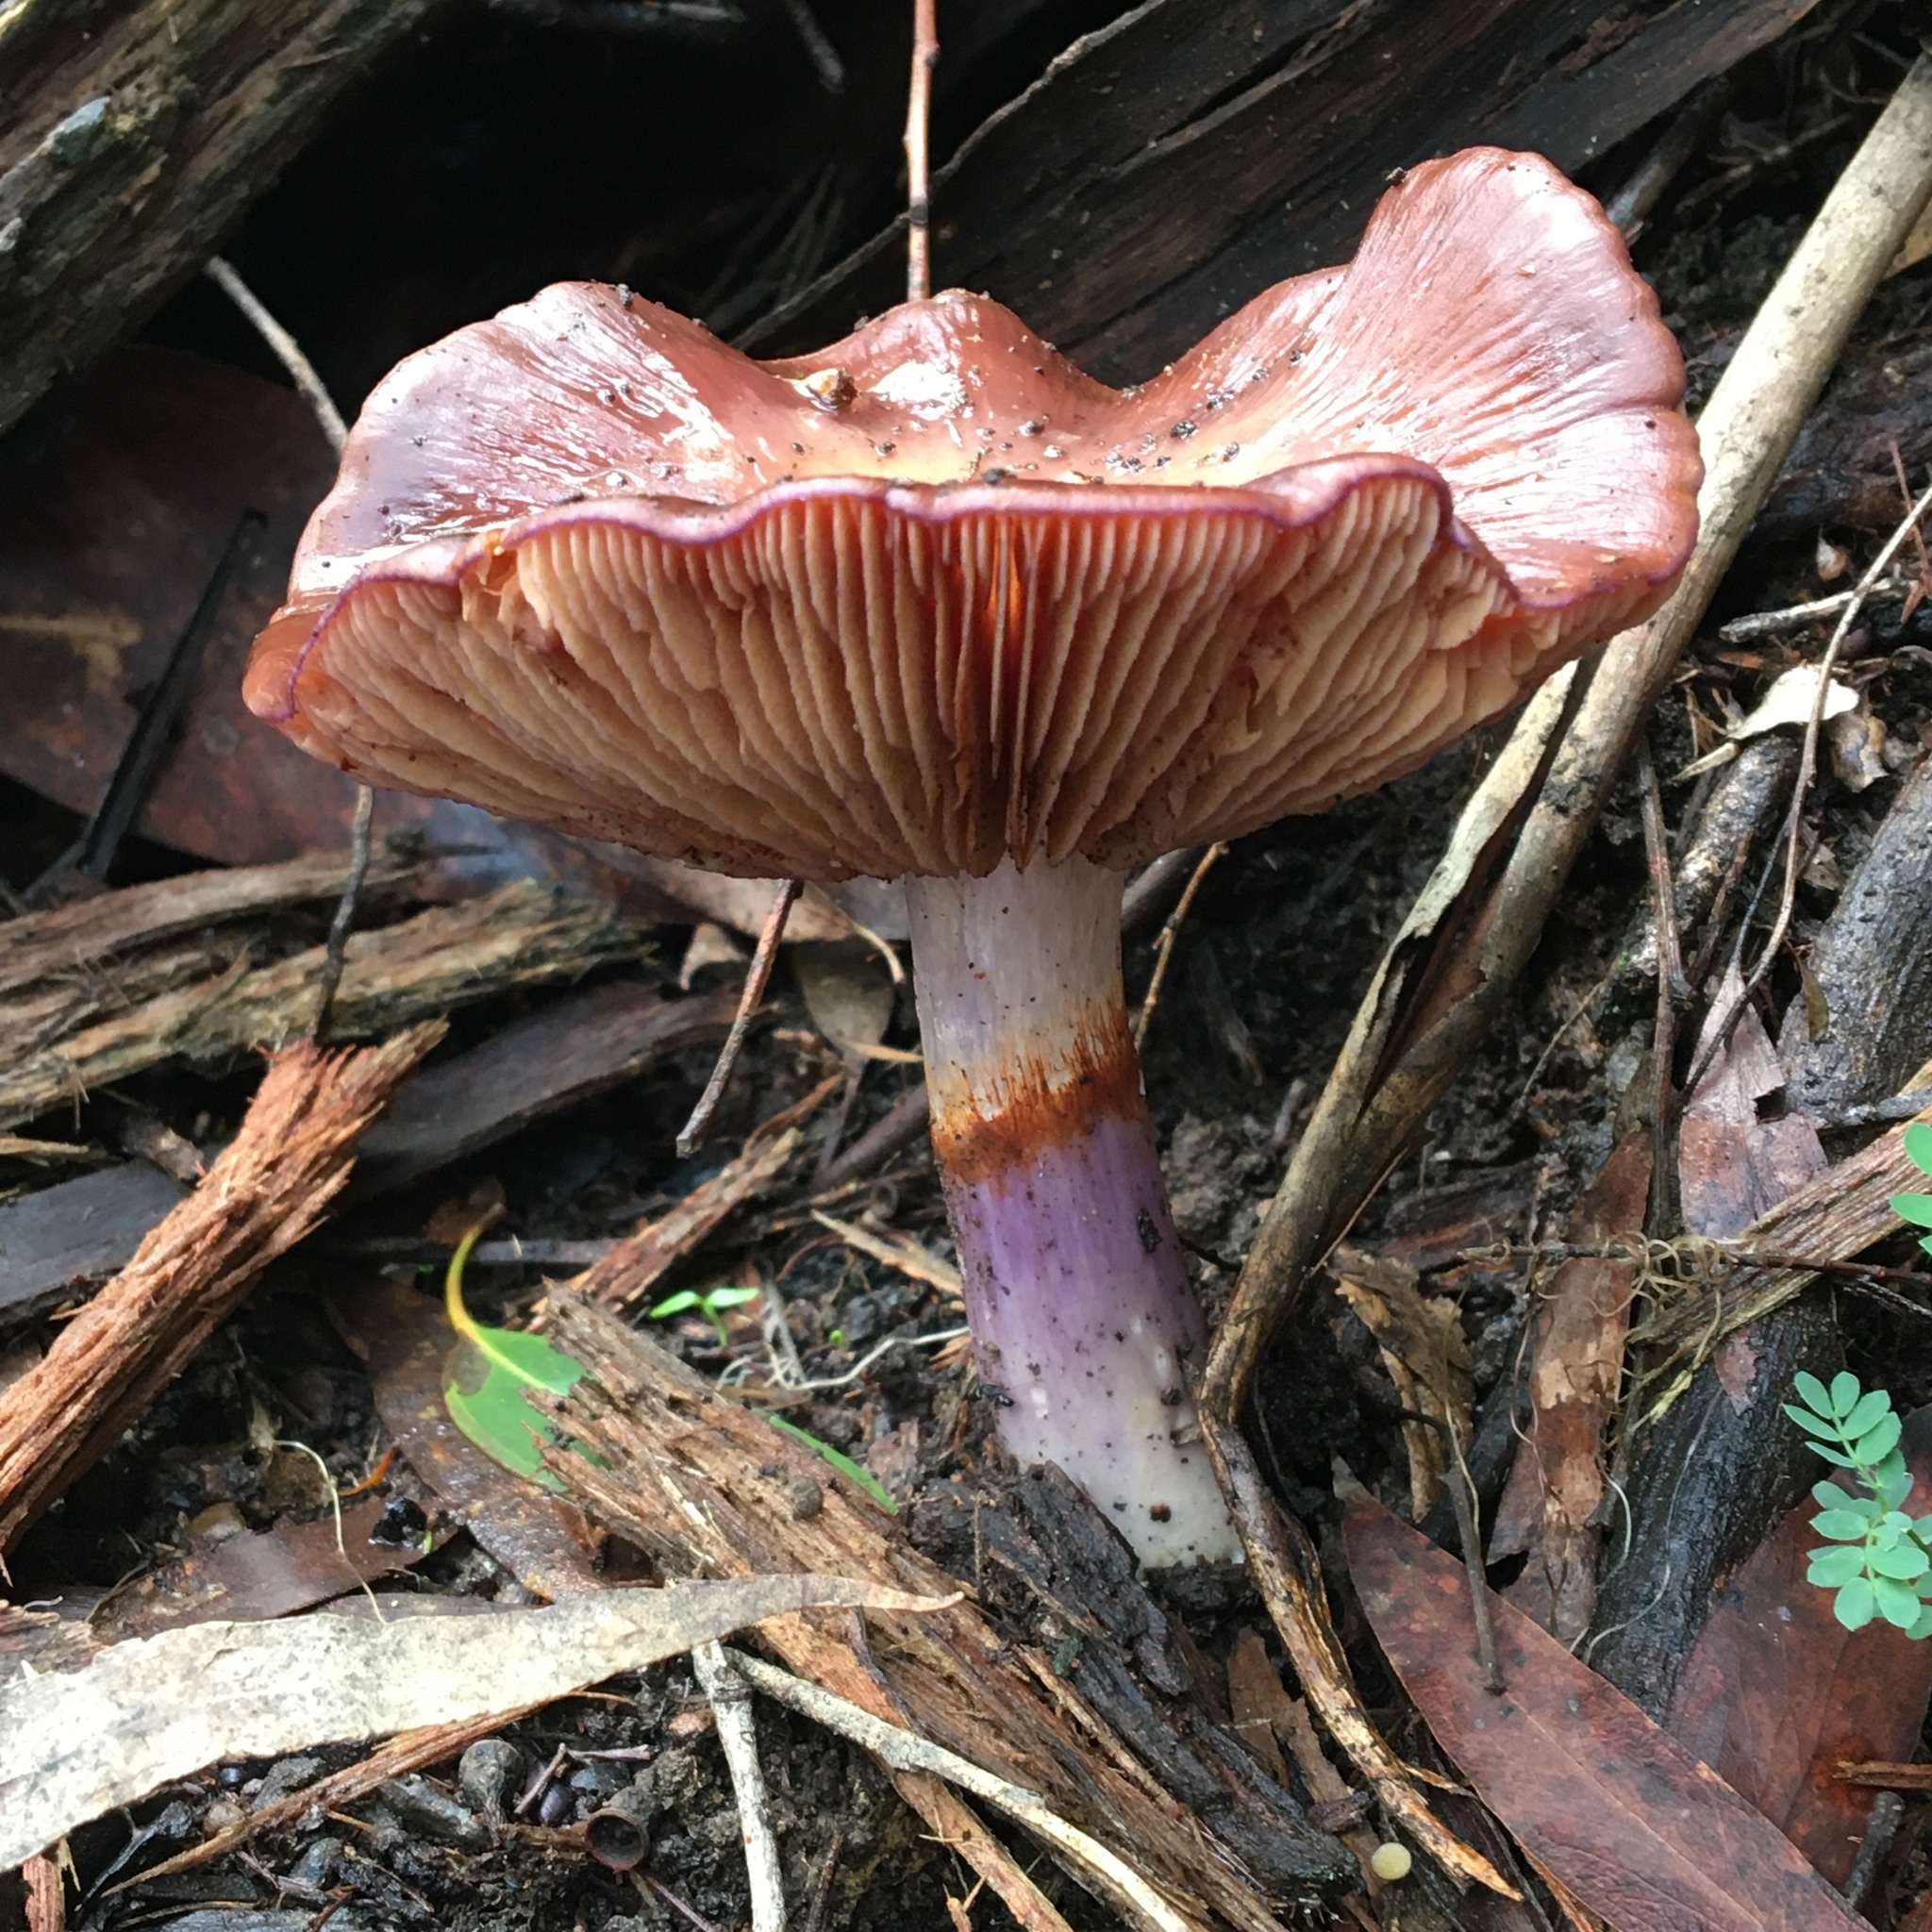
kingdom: Fungi
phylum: Basidiomycota
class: Agaricomycetes
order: Agaricales
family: Cortinariaceae
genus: Cortinarius
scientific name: Cortinarius archeri
